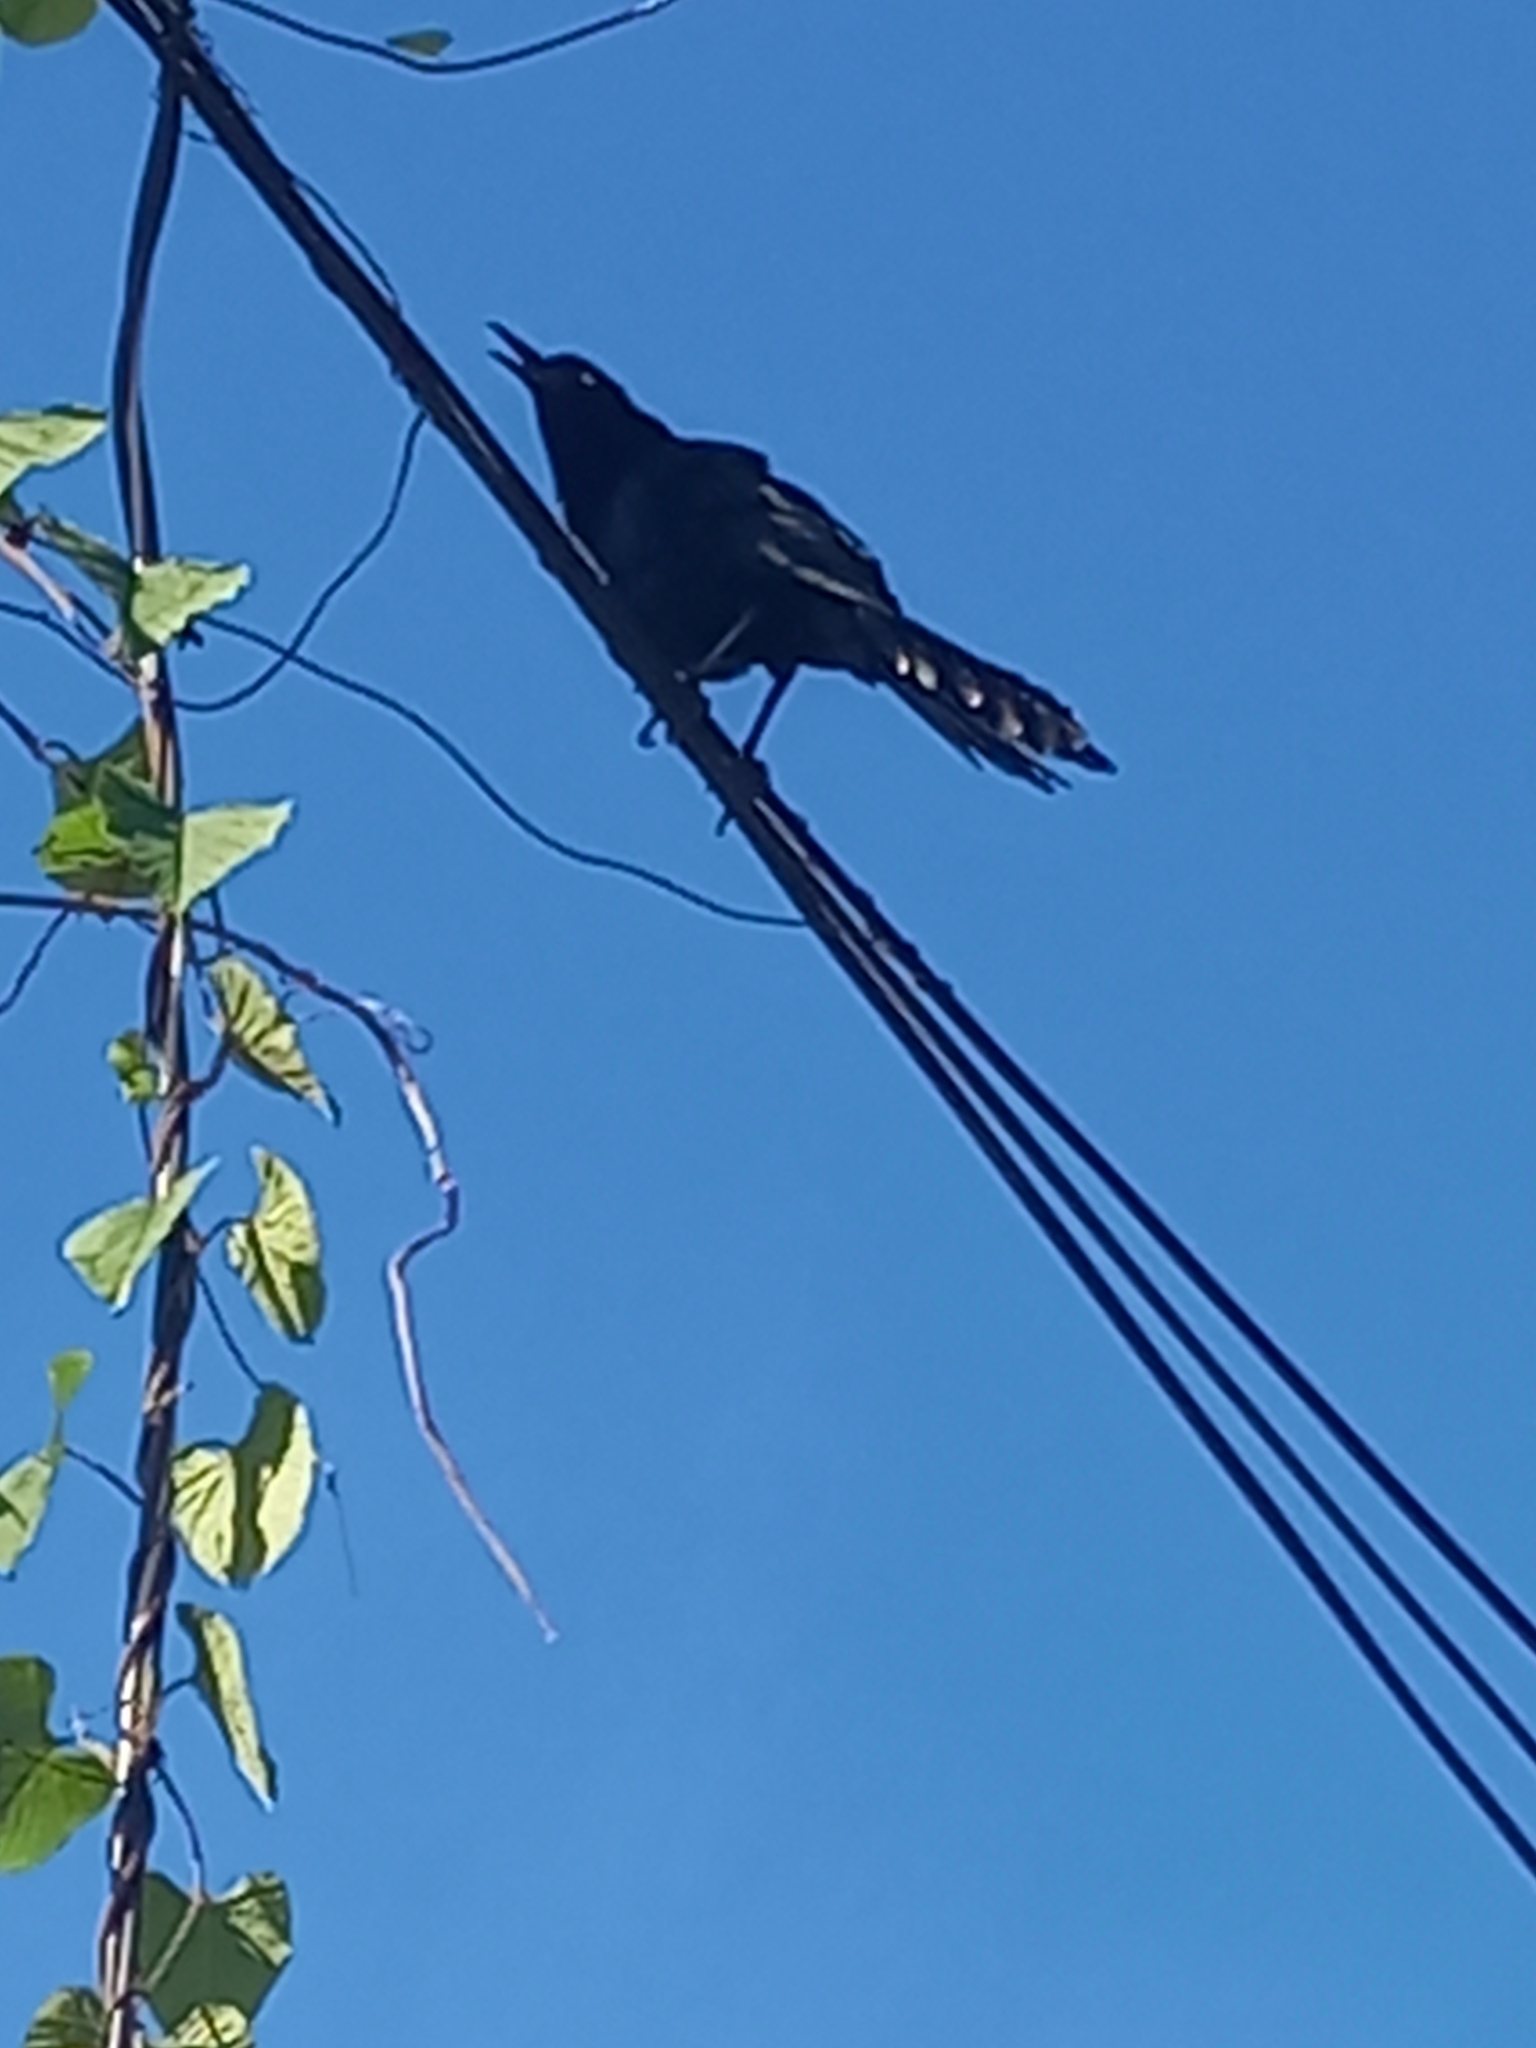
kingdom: Animalia
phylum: Chordata
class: Aves
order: Passeriformes
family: Icteridae
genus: Quiscalus
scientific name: Quiscalus mexicanus
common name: Great-tailed grackle
